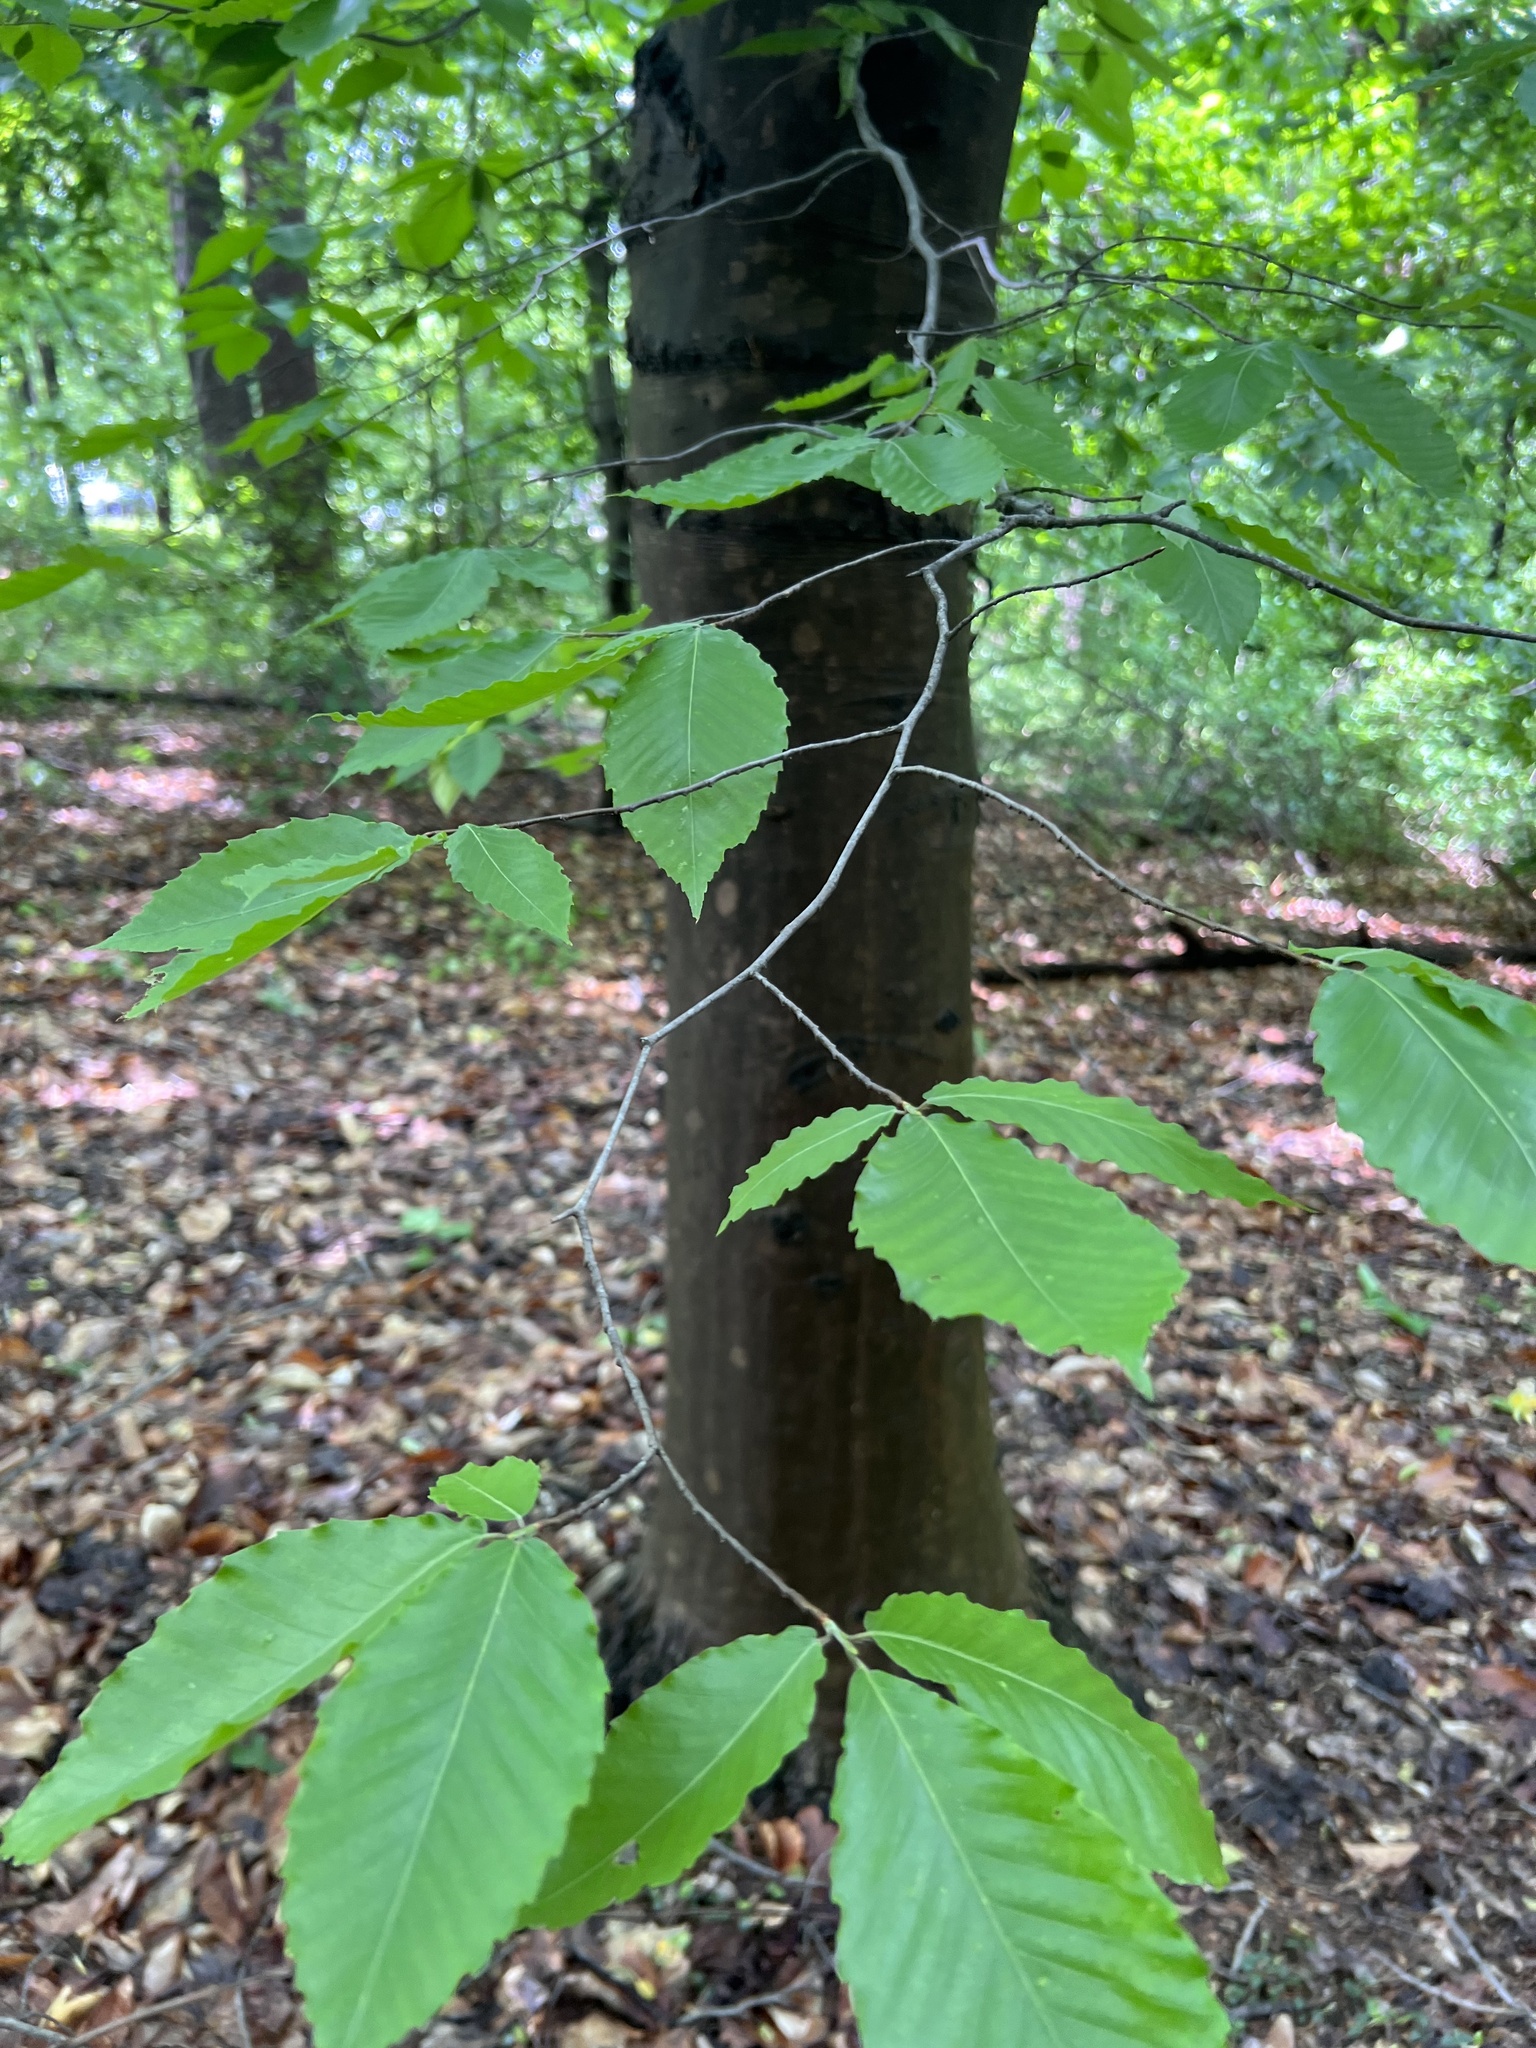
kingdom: Plantae
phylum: Tracheophyta
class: Magnoliopsida
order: Fagales
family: Fagaceae
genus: Fagus
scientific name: Fagus grandifolia
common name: American beech
